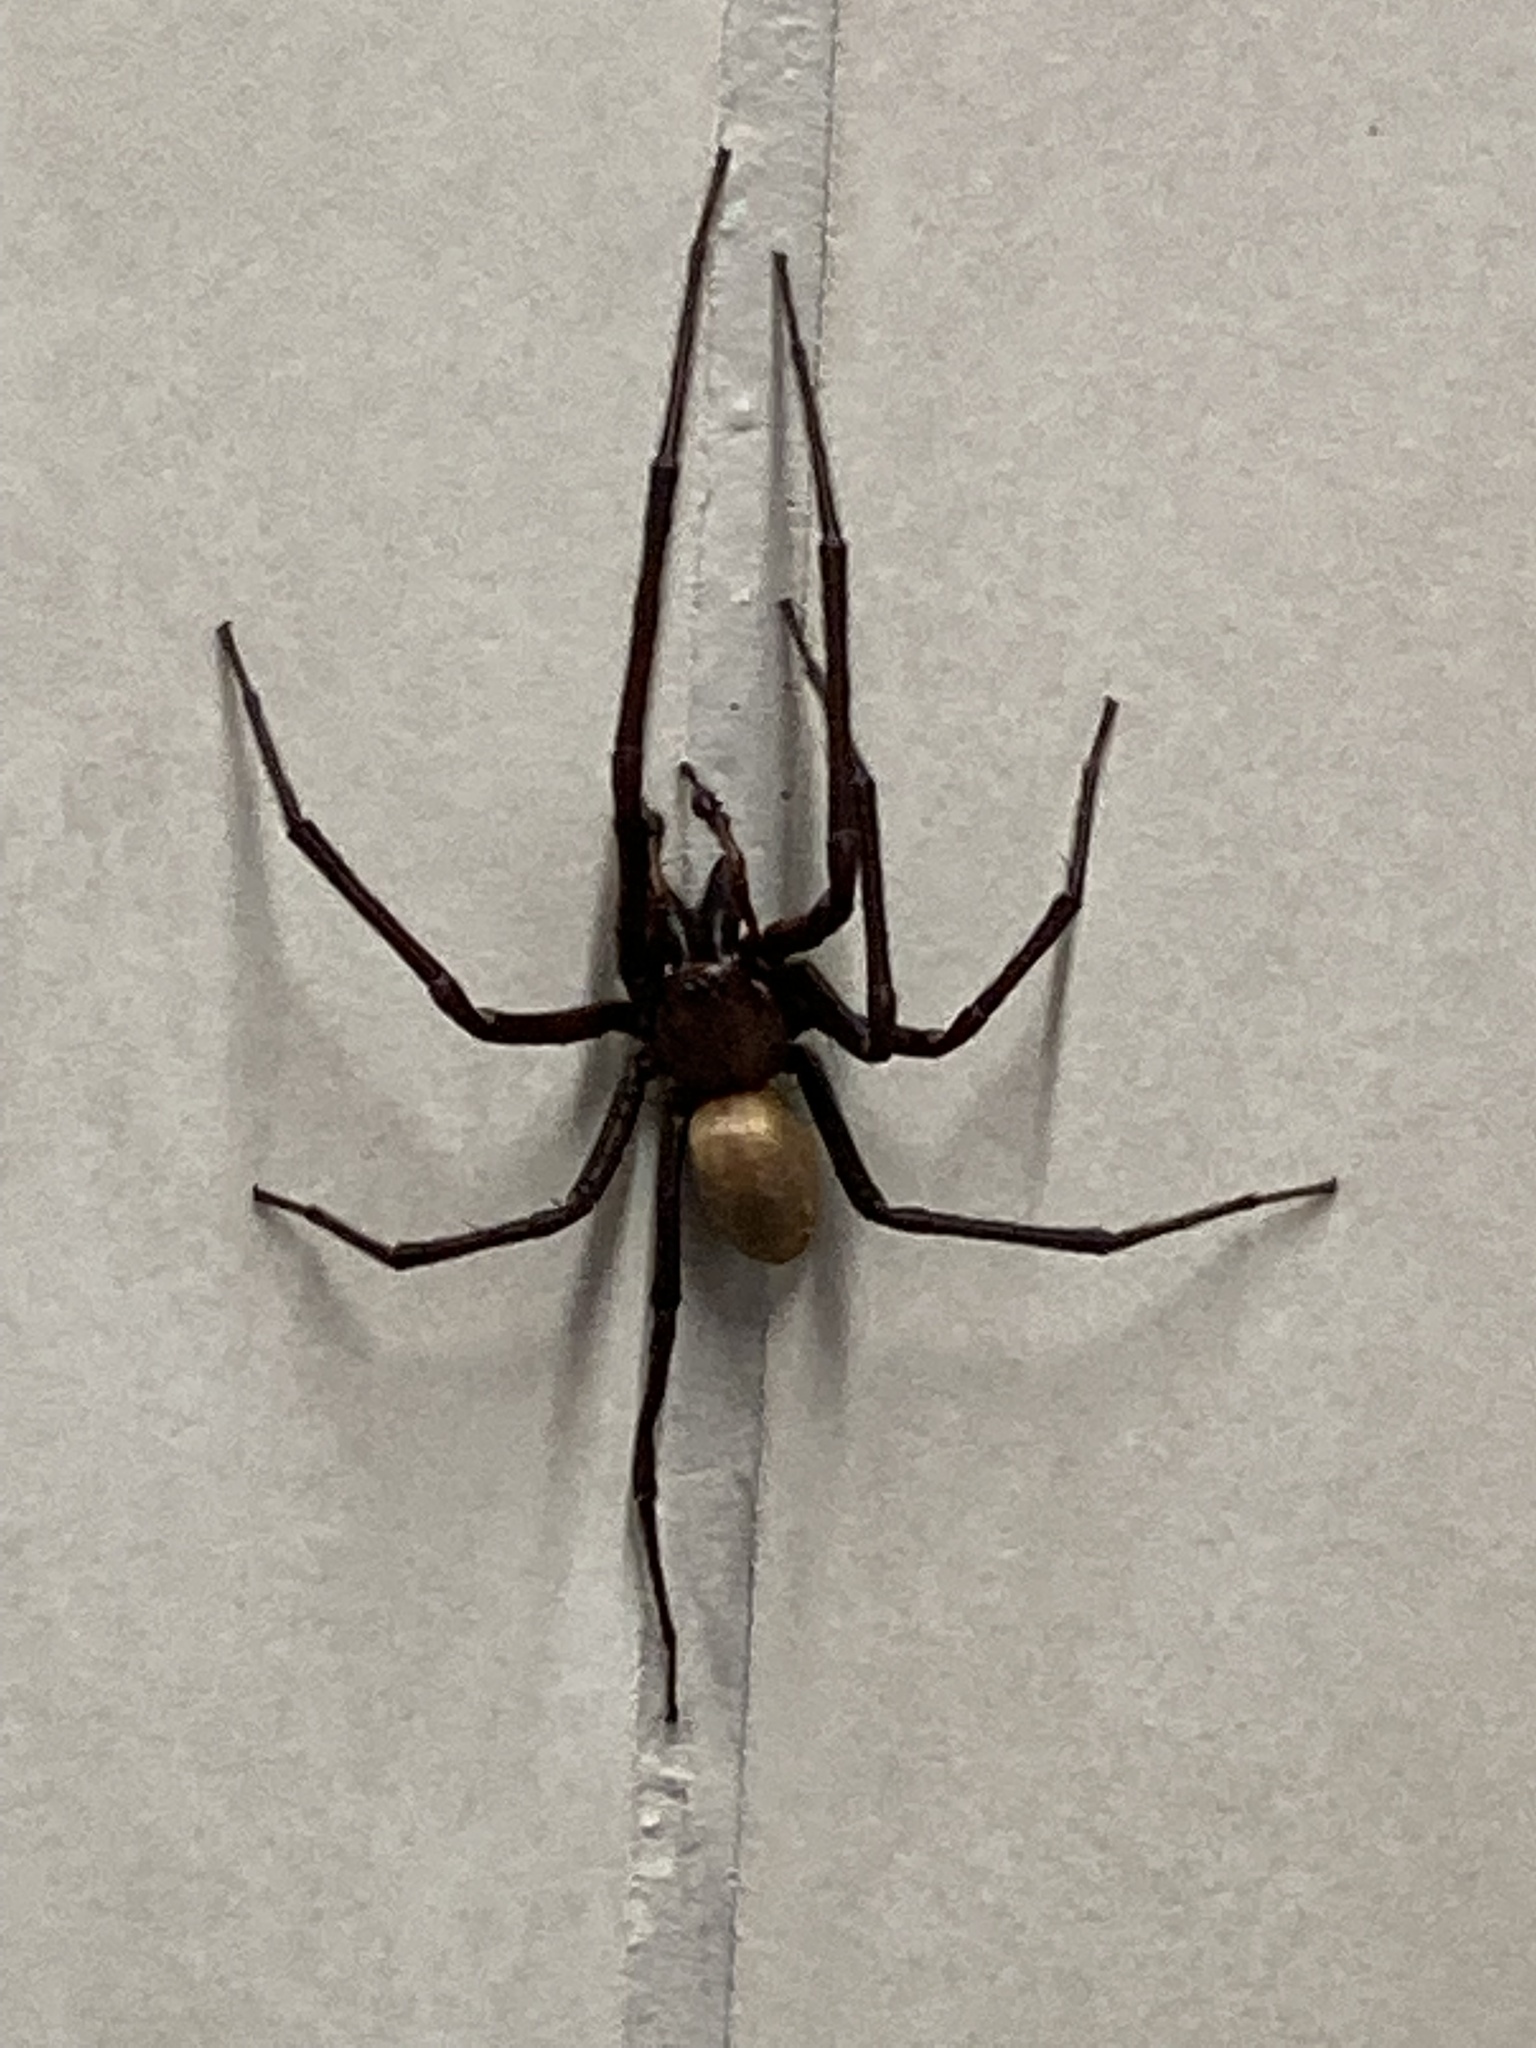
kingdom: Animalia
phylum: Arthropoda
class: Arachnida
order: Araneae
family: Desidae
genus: Cambridgea
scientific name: Cambridgea foliata
